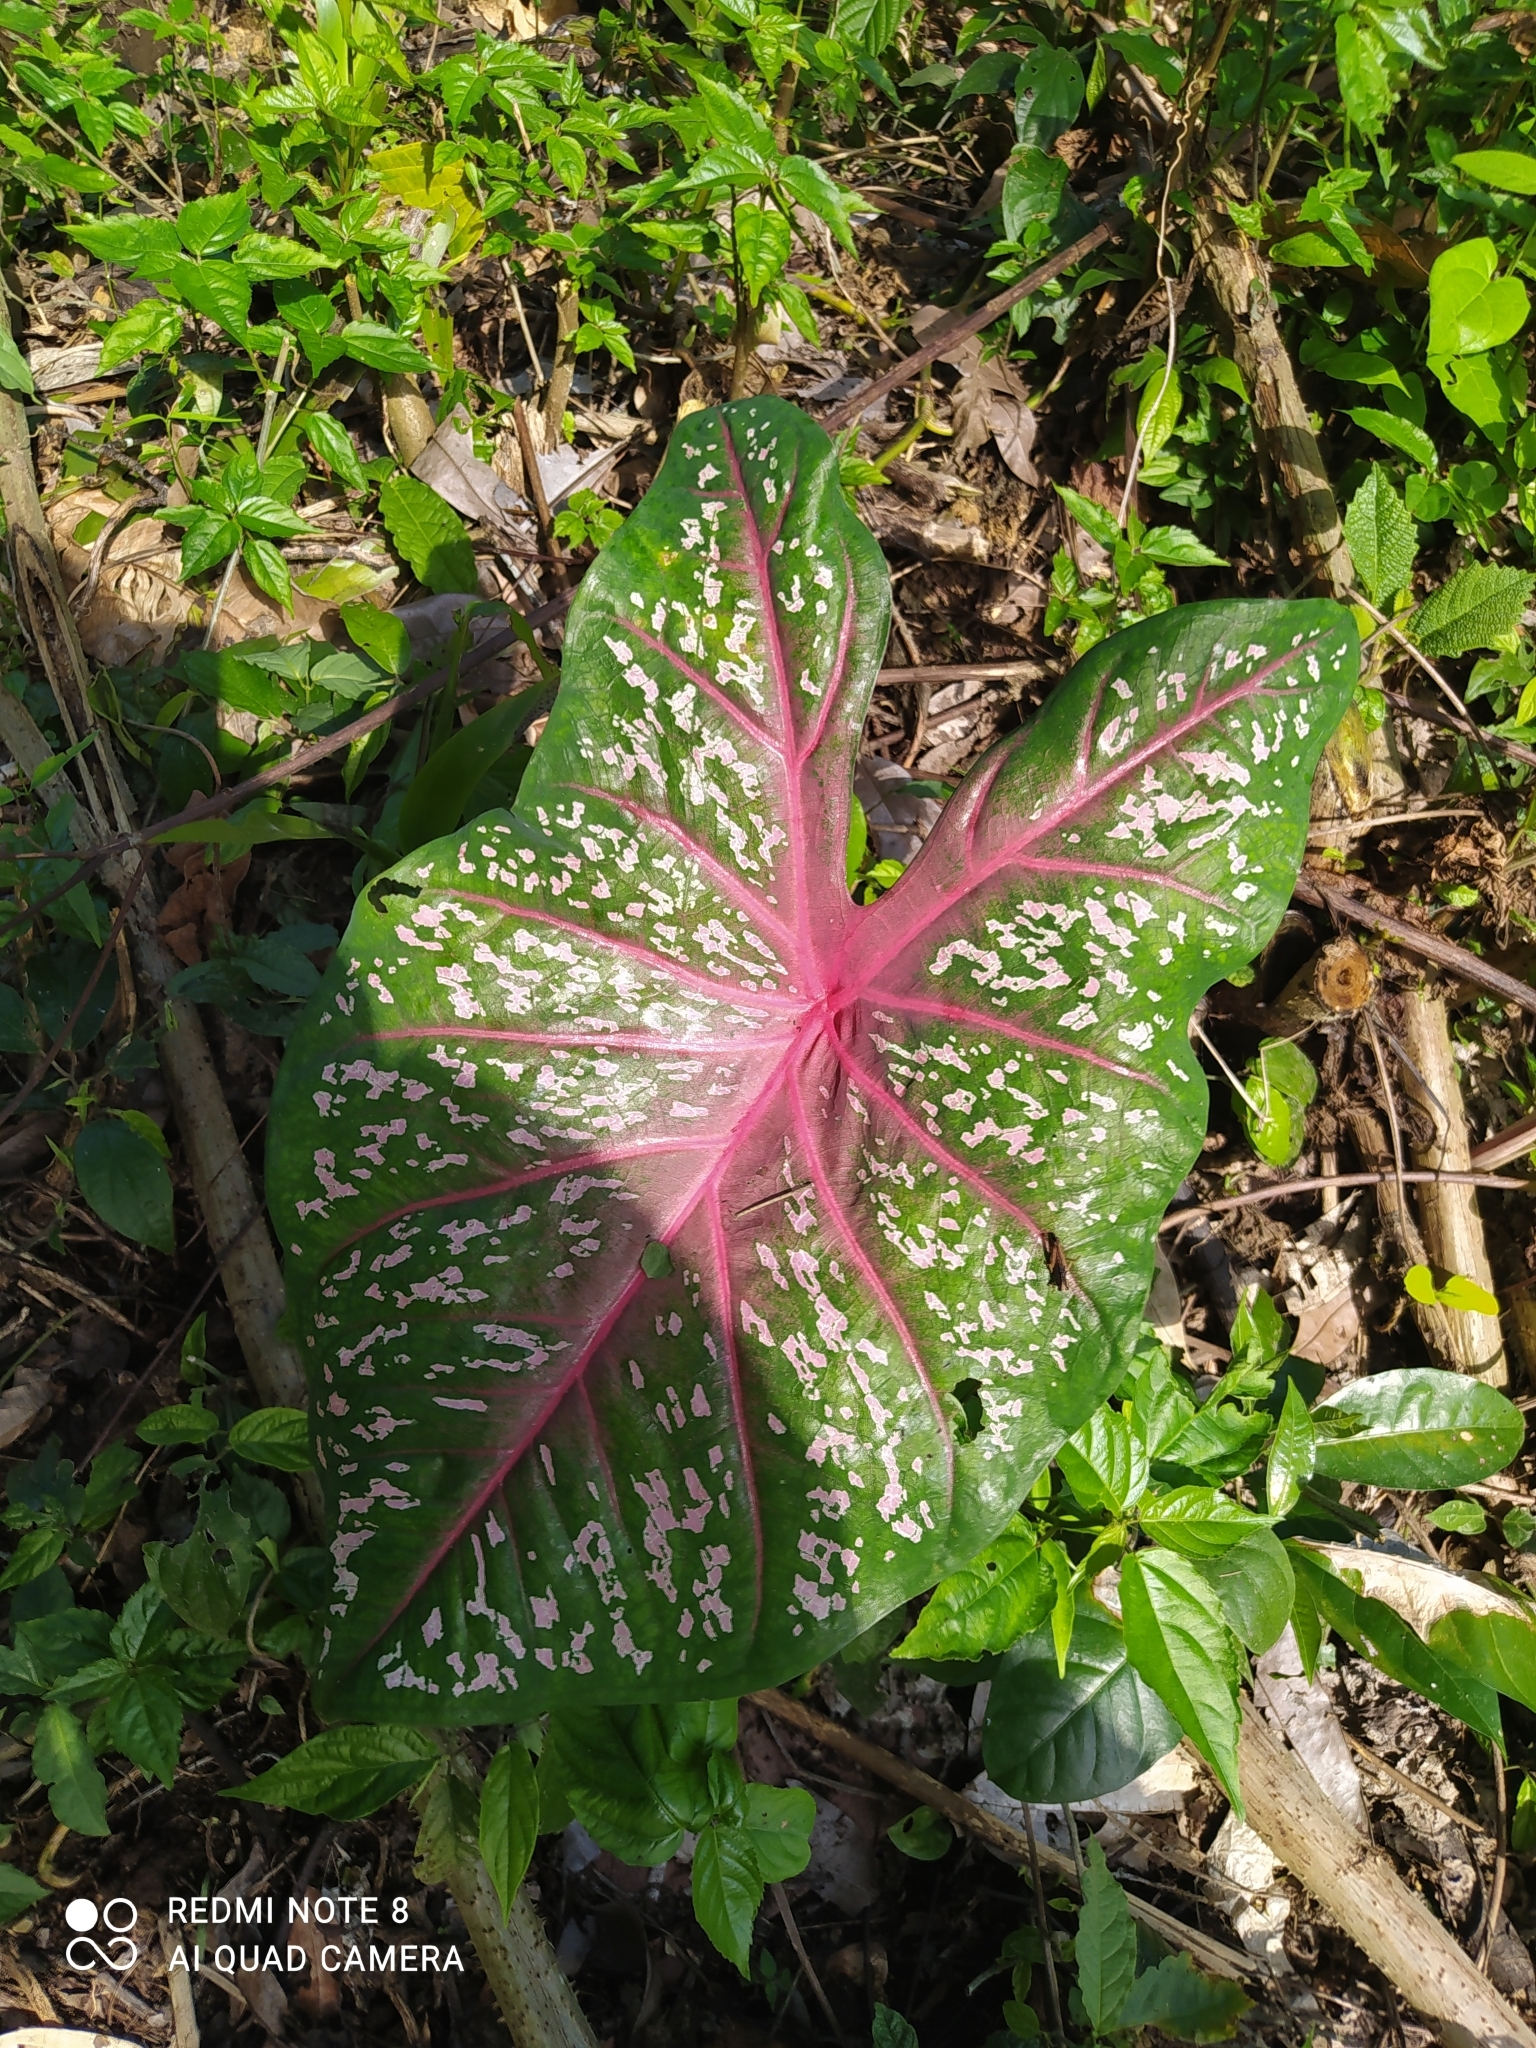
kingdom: Plantae
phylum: Tracheophyta
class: Liliopsida
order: Alismatales
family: Araceae
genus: Caladium
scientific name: Caladium bicolor
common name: Artist's pallet
